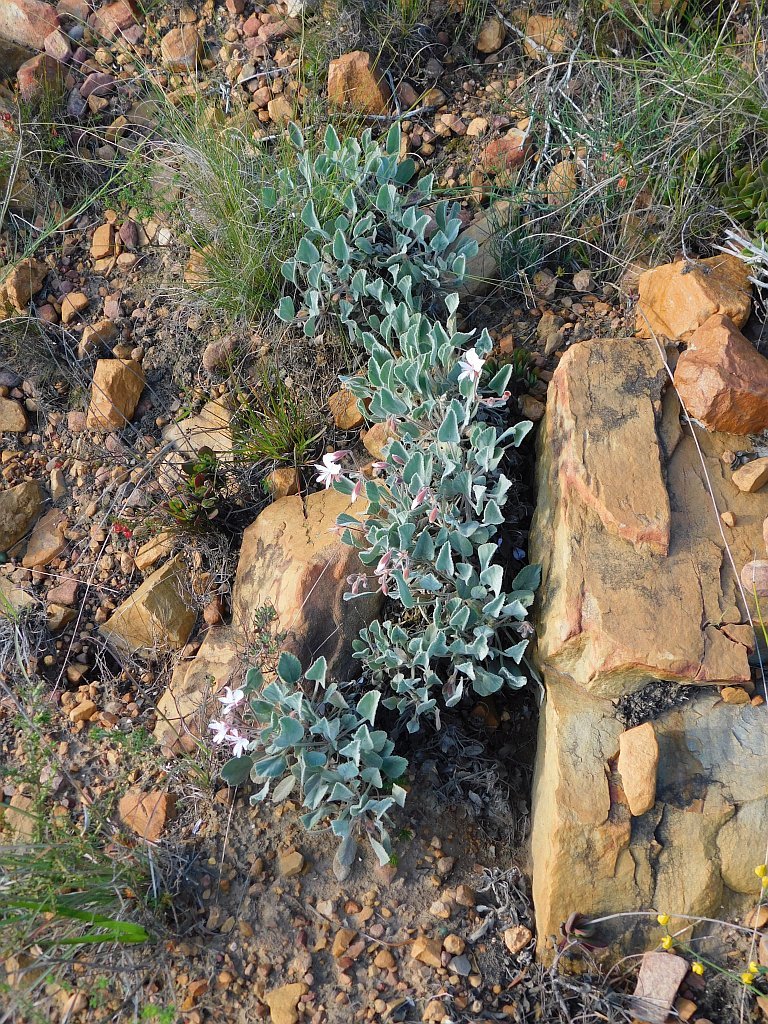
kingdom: Plantae
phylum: Tracheophyta
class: Magnoliopsida
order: Geraniales
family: Geraniaceae
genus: Pelargonium
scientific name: Pelargonium ovale
